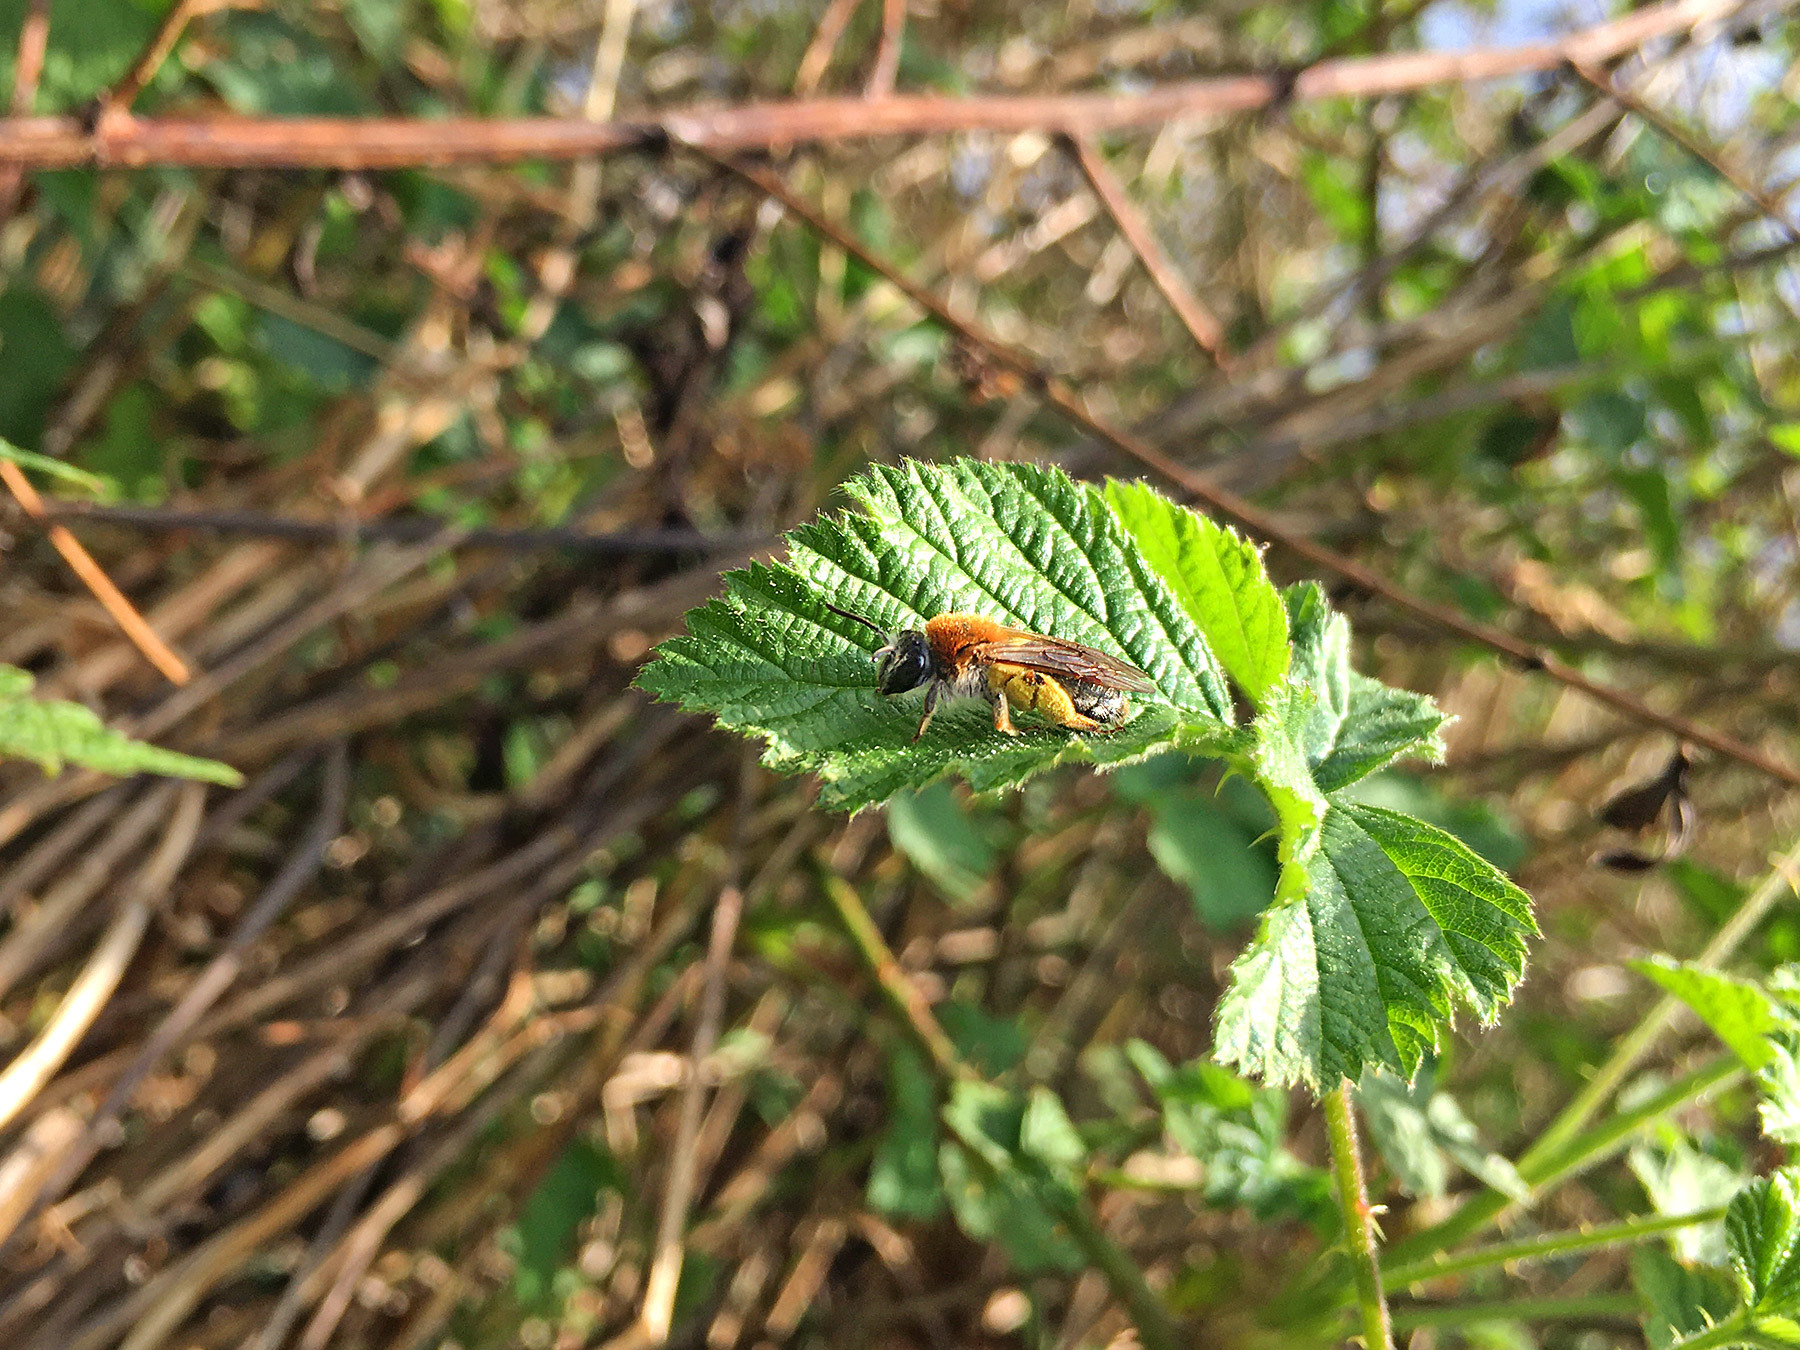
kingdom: Animalia
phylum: Arthropoda
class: Insecta
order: Hymenoptera
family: Andrenidae
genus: Andrena
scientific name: Andrena haemorrhoa
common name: Early mining bee
